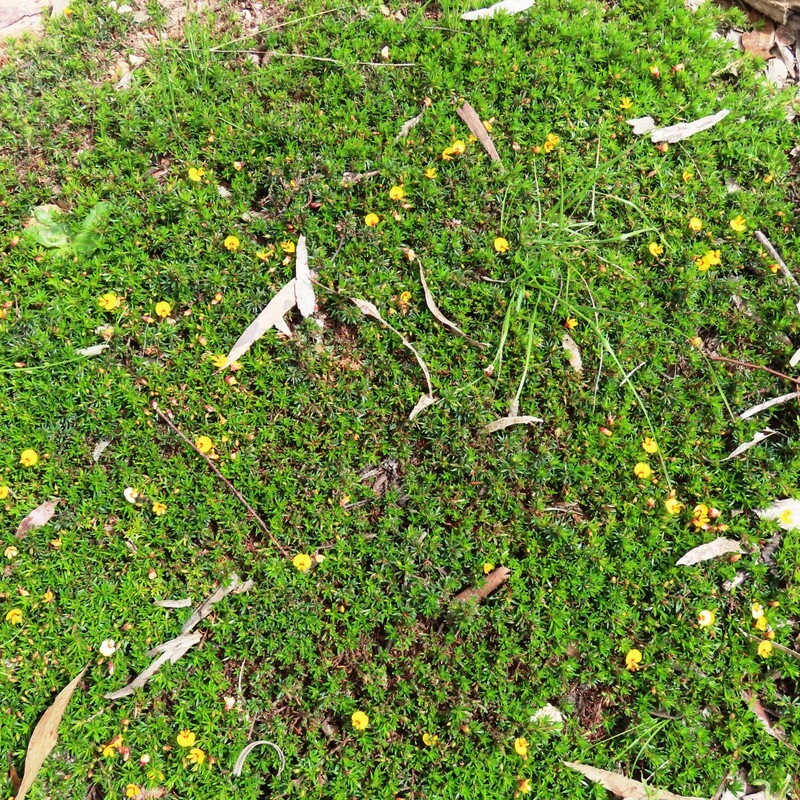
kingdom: Plantae
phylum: Tracheophyta
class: Magnoliopsida
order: Fabales
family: Fabaceae
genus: Pultenaea
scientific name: Pultenaea pedunculata
